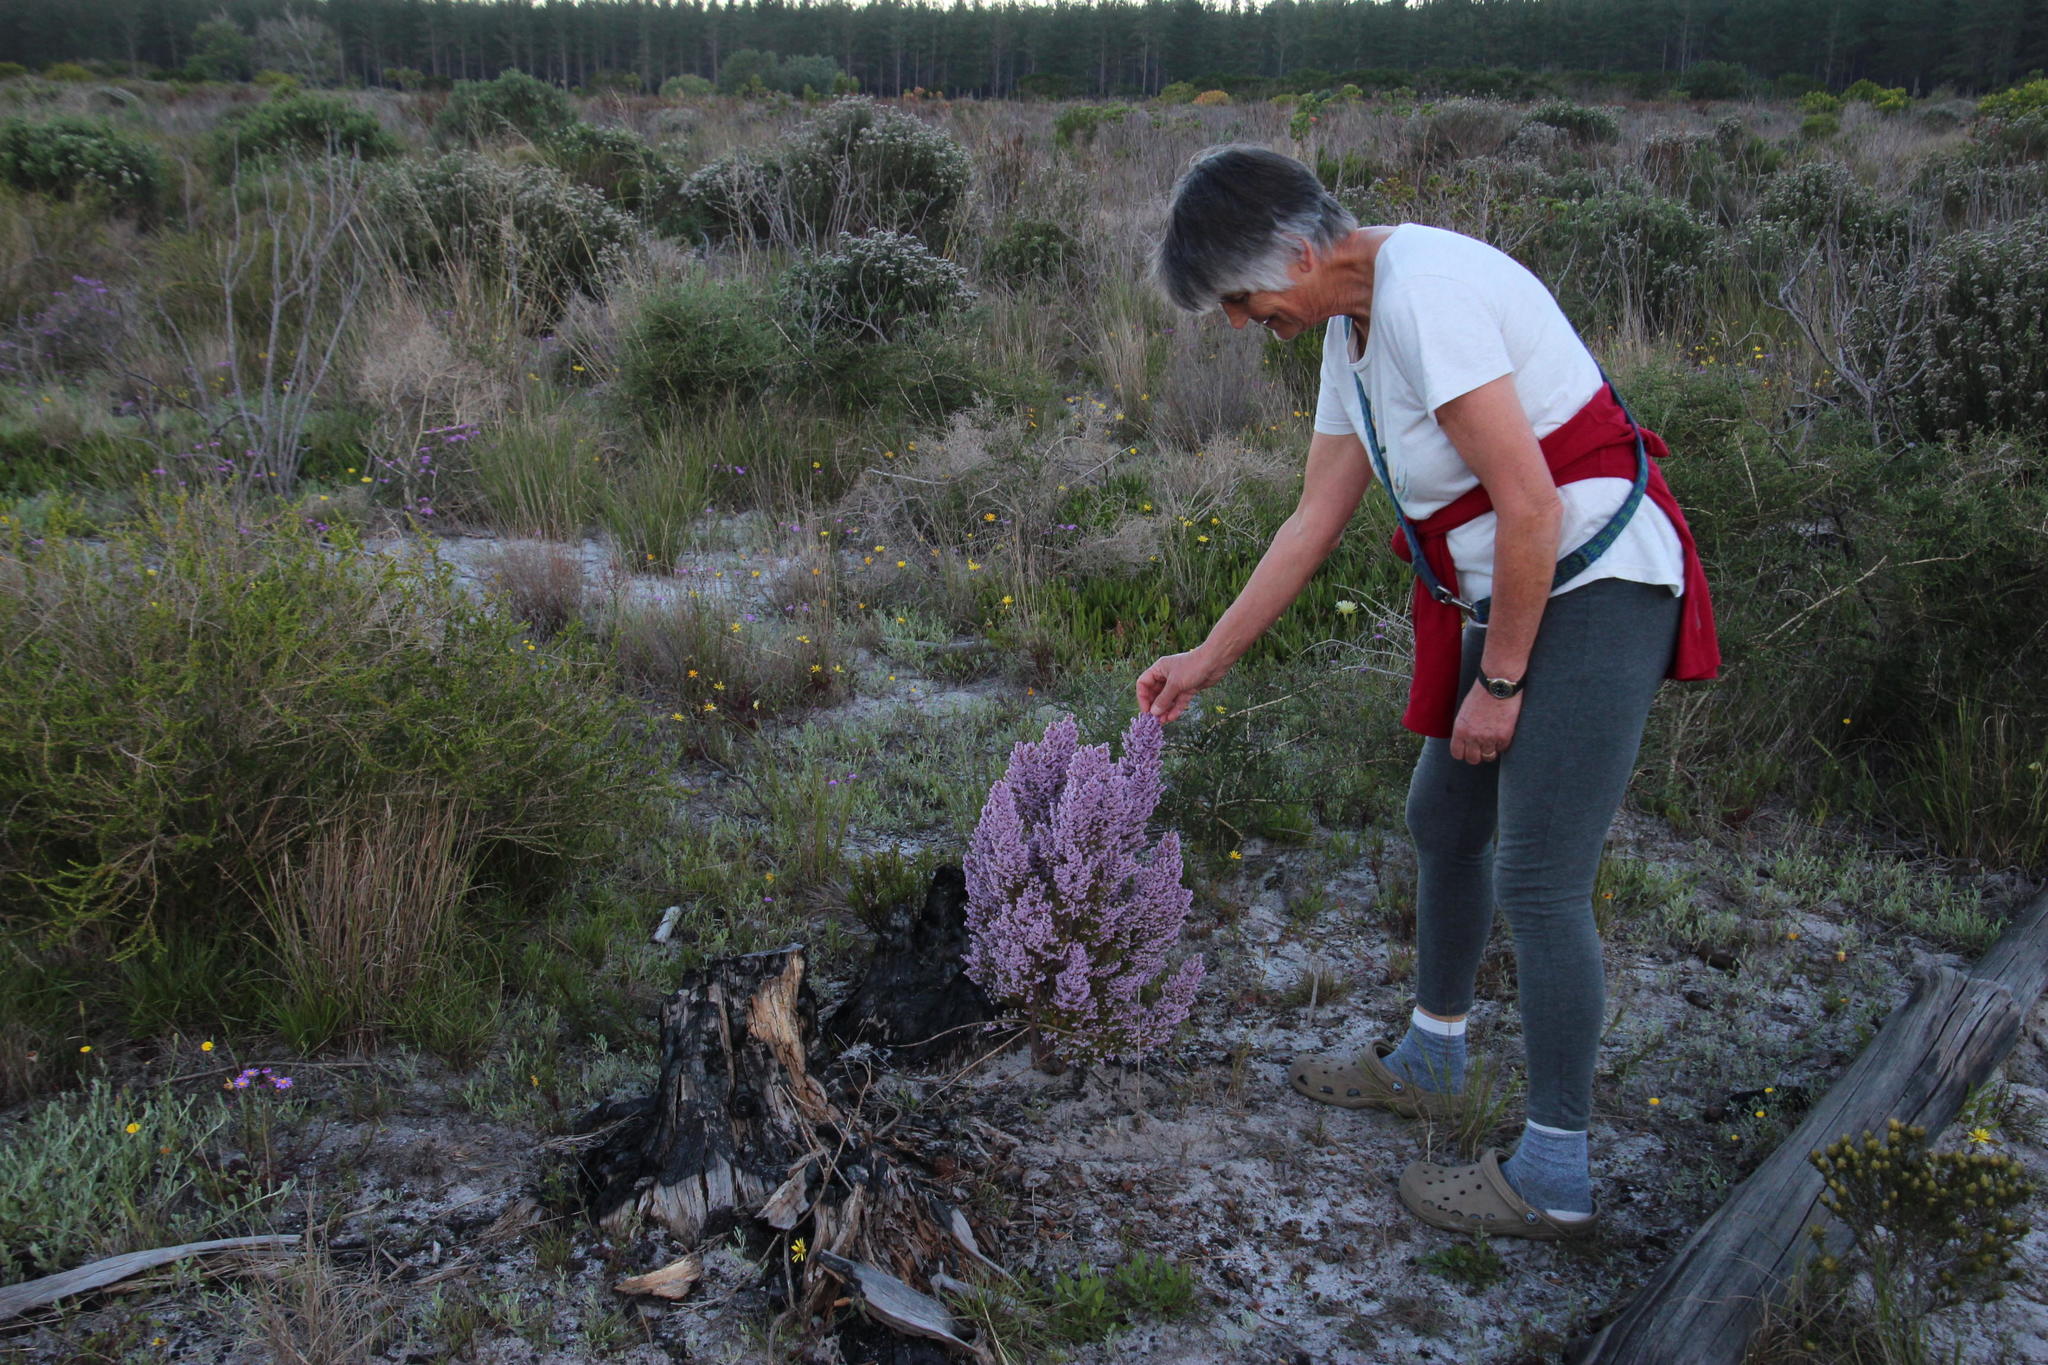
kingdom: Plantae
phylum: Tracheophyta
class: Magnoliopsida
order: Asterales
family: Asteraceae
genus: Ursinia
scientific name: Ursinia anthemoides
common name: Ursinia
